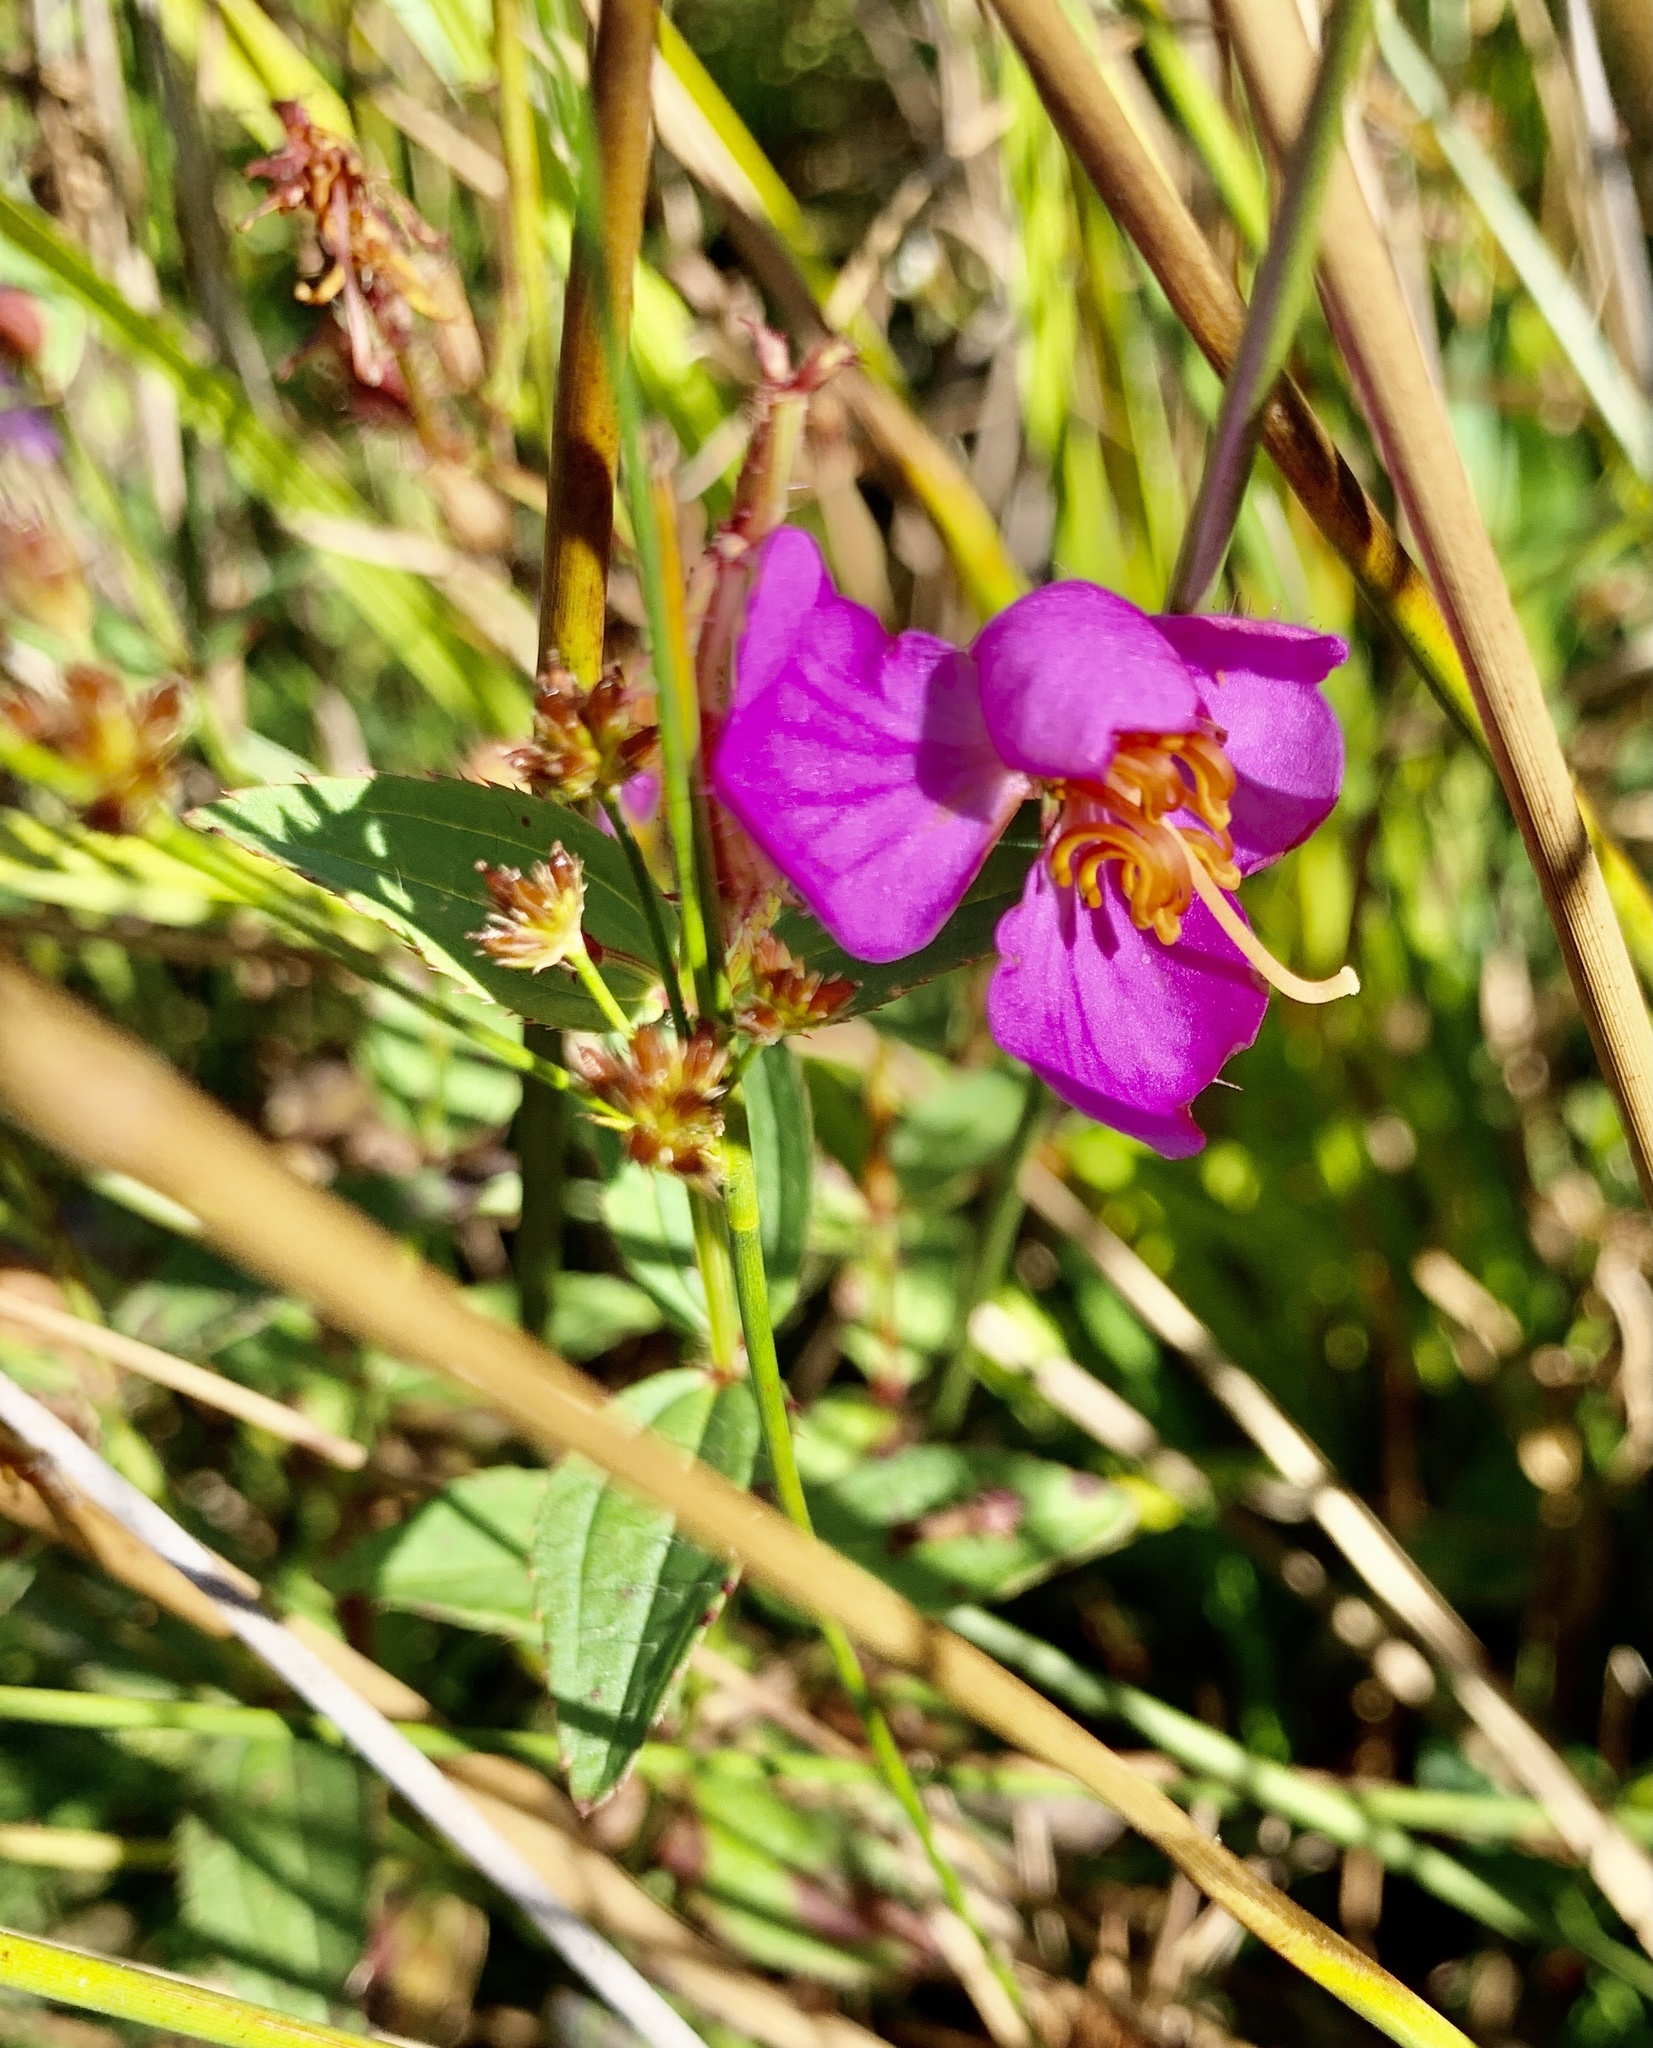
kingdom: Plantae
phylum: Tracheophyta
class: Magnoliopsida
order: Myrtales
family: Melastomataceae
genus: Rhexia
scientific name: Rhexia virginica
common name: Common meadow beauty
